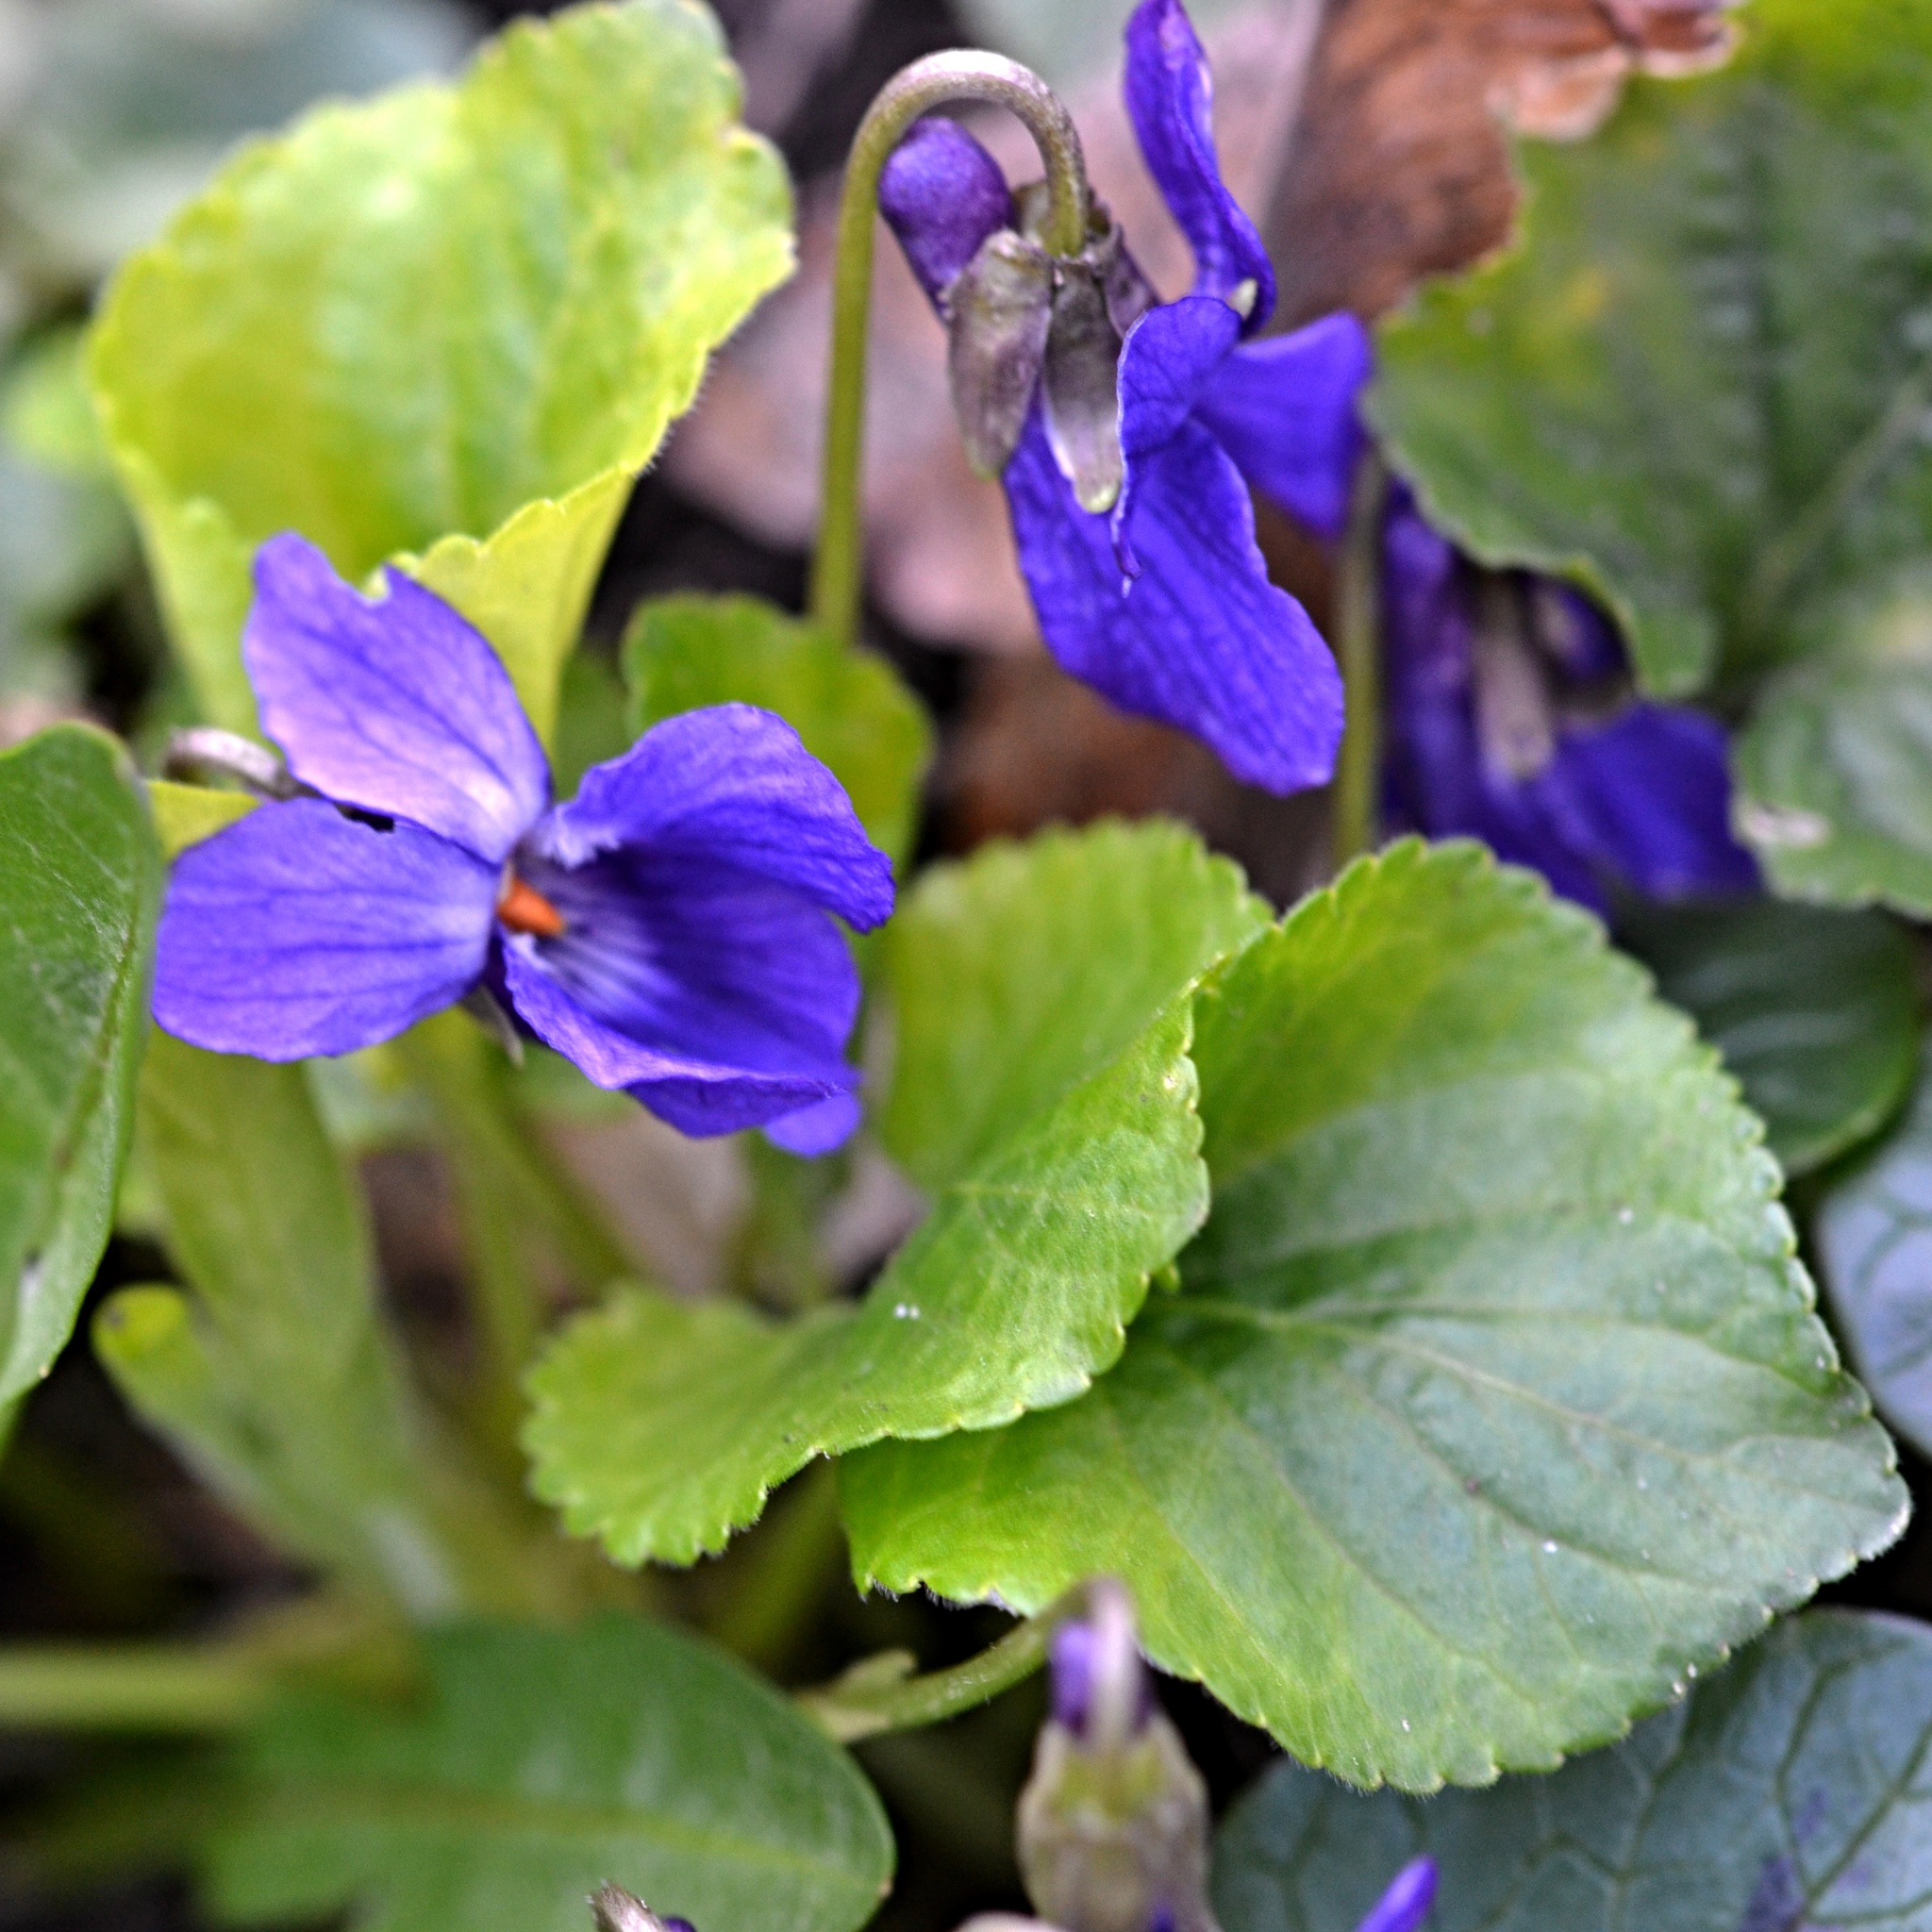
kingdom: Plantae
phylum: Tracheophyta
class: Magnoliopsida
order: Malpighiales
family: Violaceae
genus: Viola
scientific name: Viola odorata
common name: Sweet violet
